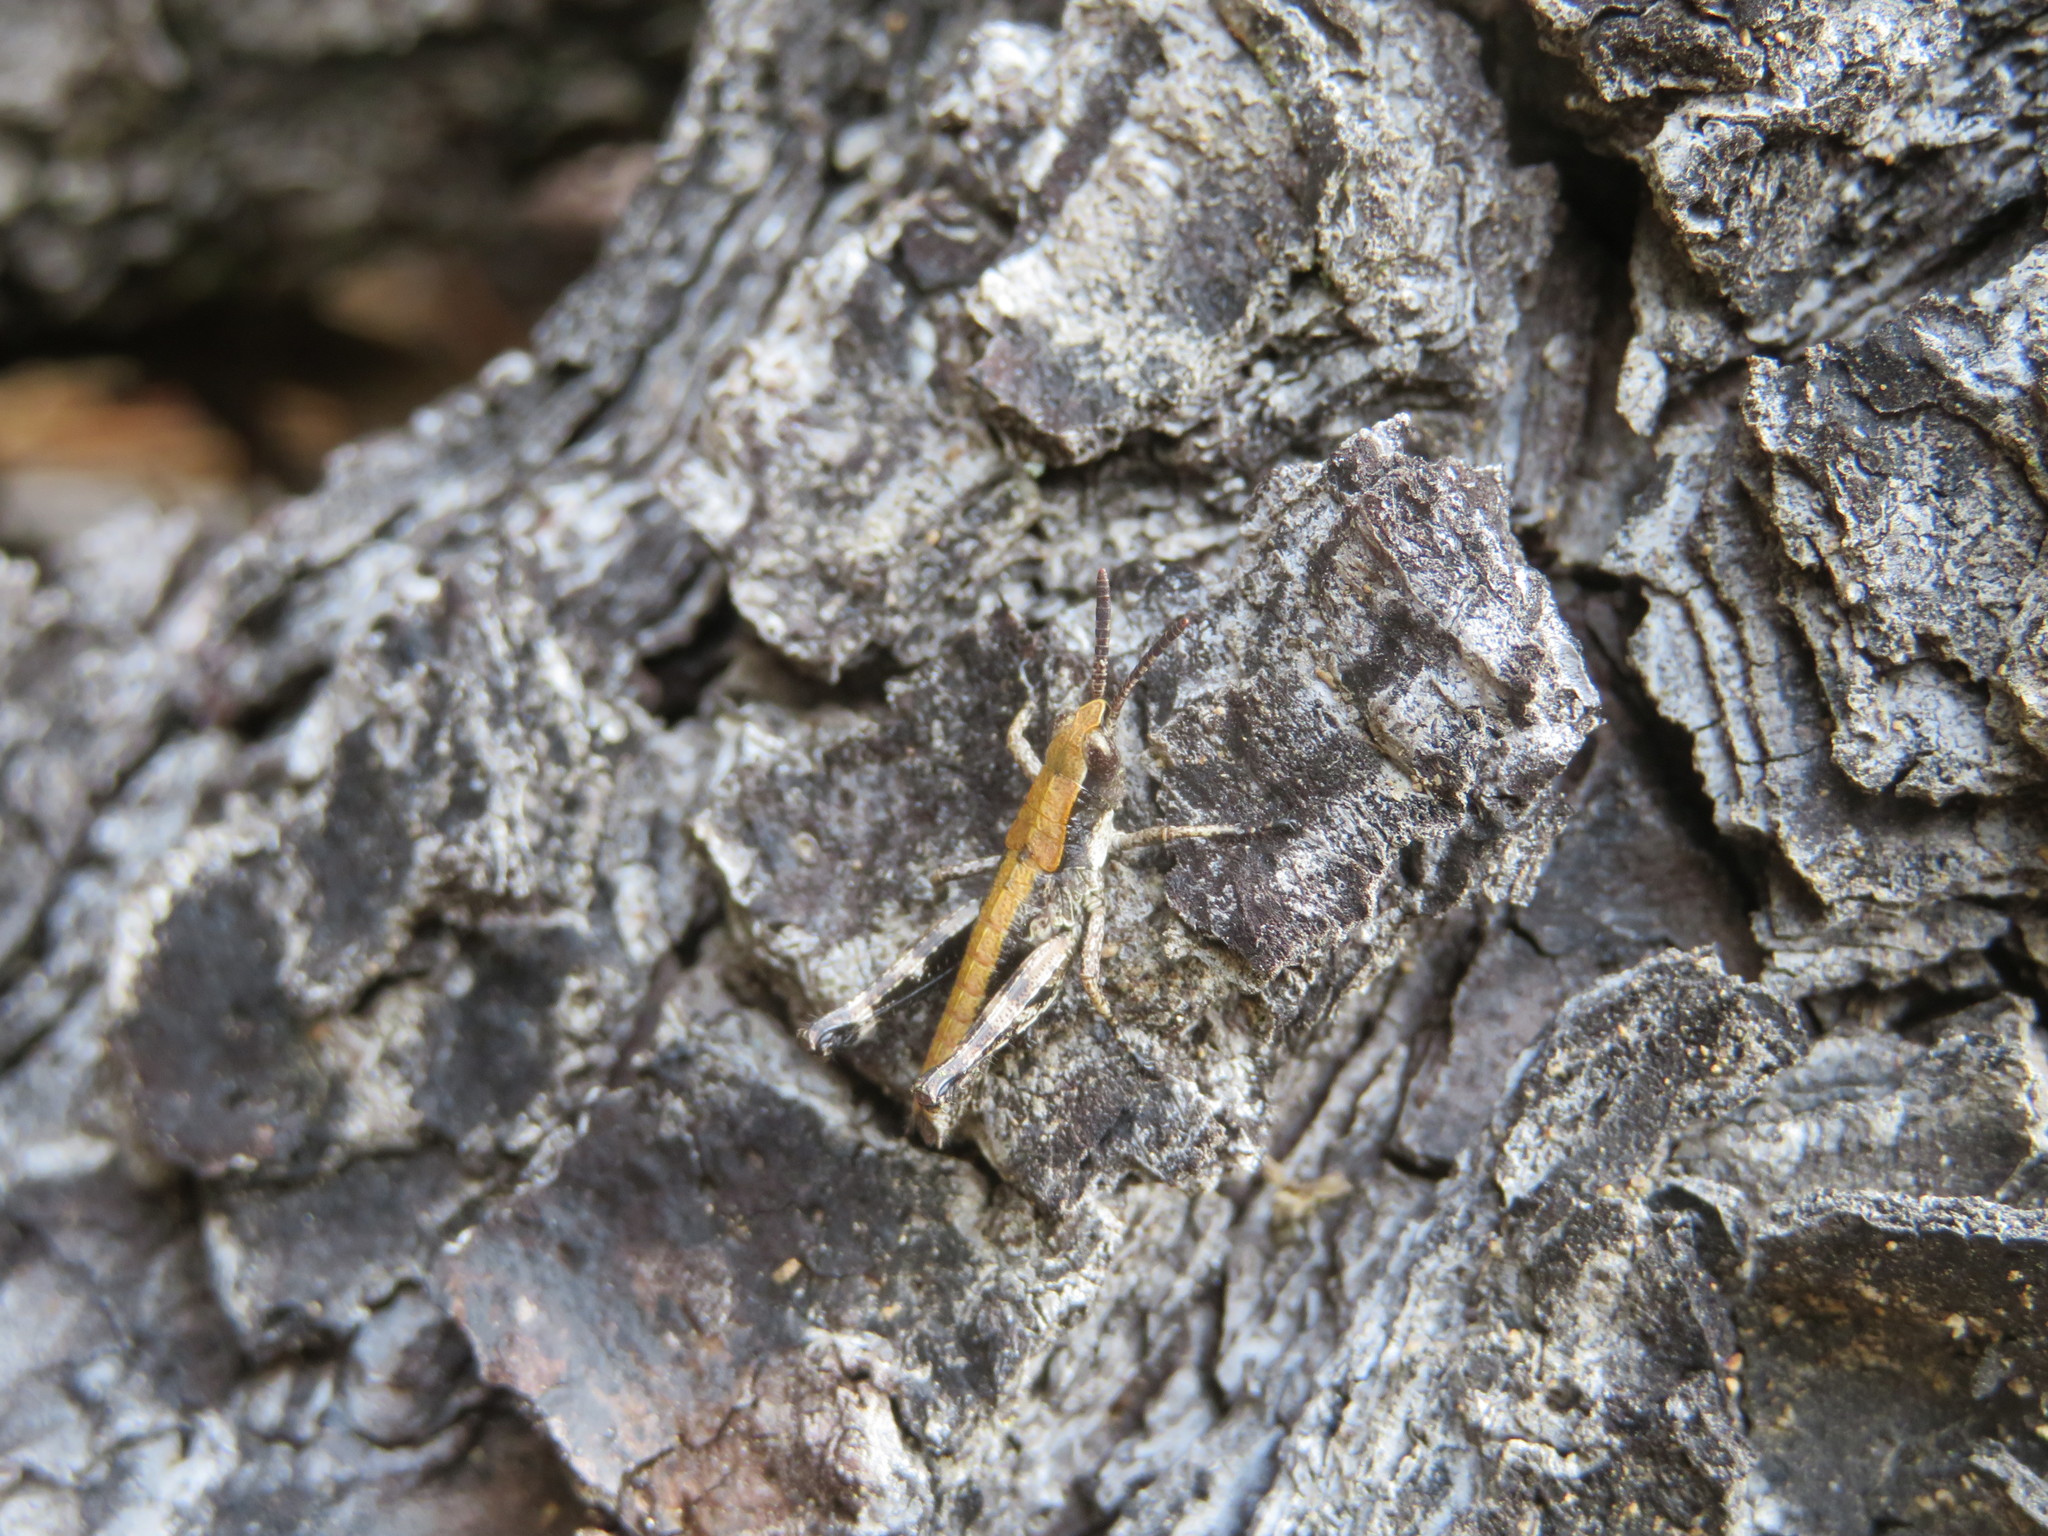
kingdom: Animalia
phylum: Arthropoda
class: Insecta
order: Orthoptera
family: Acrididae
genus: Sigaus
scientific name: Sigaus piliferus
